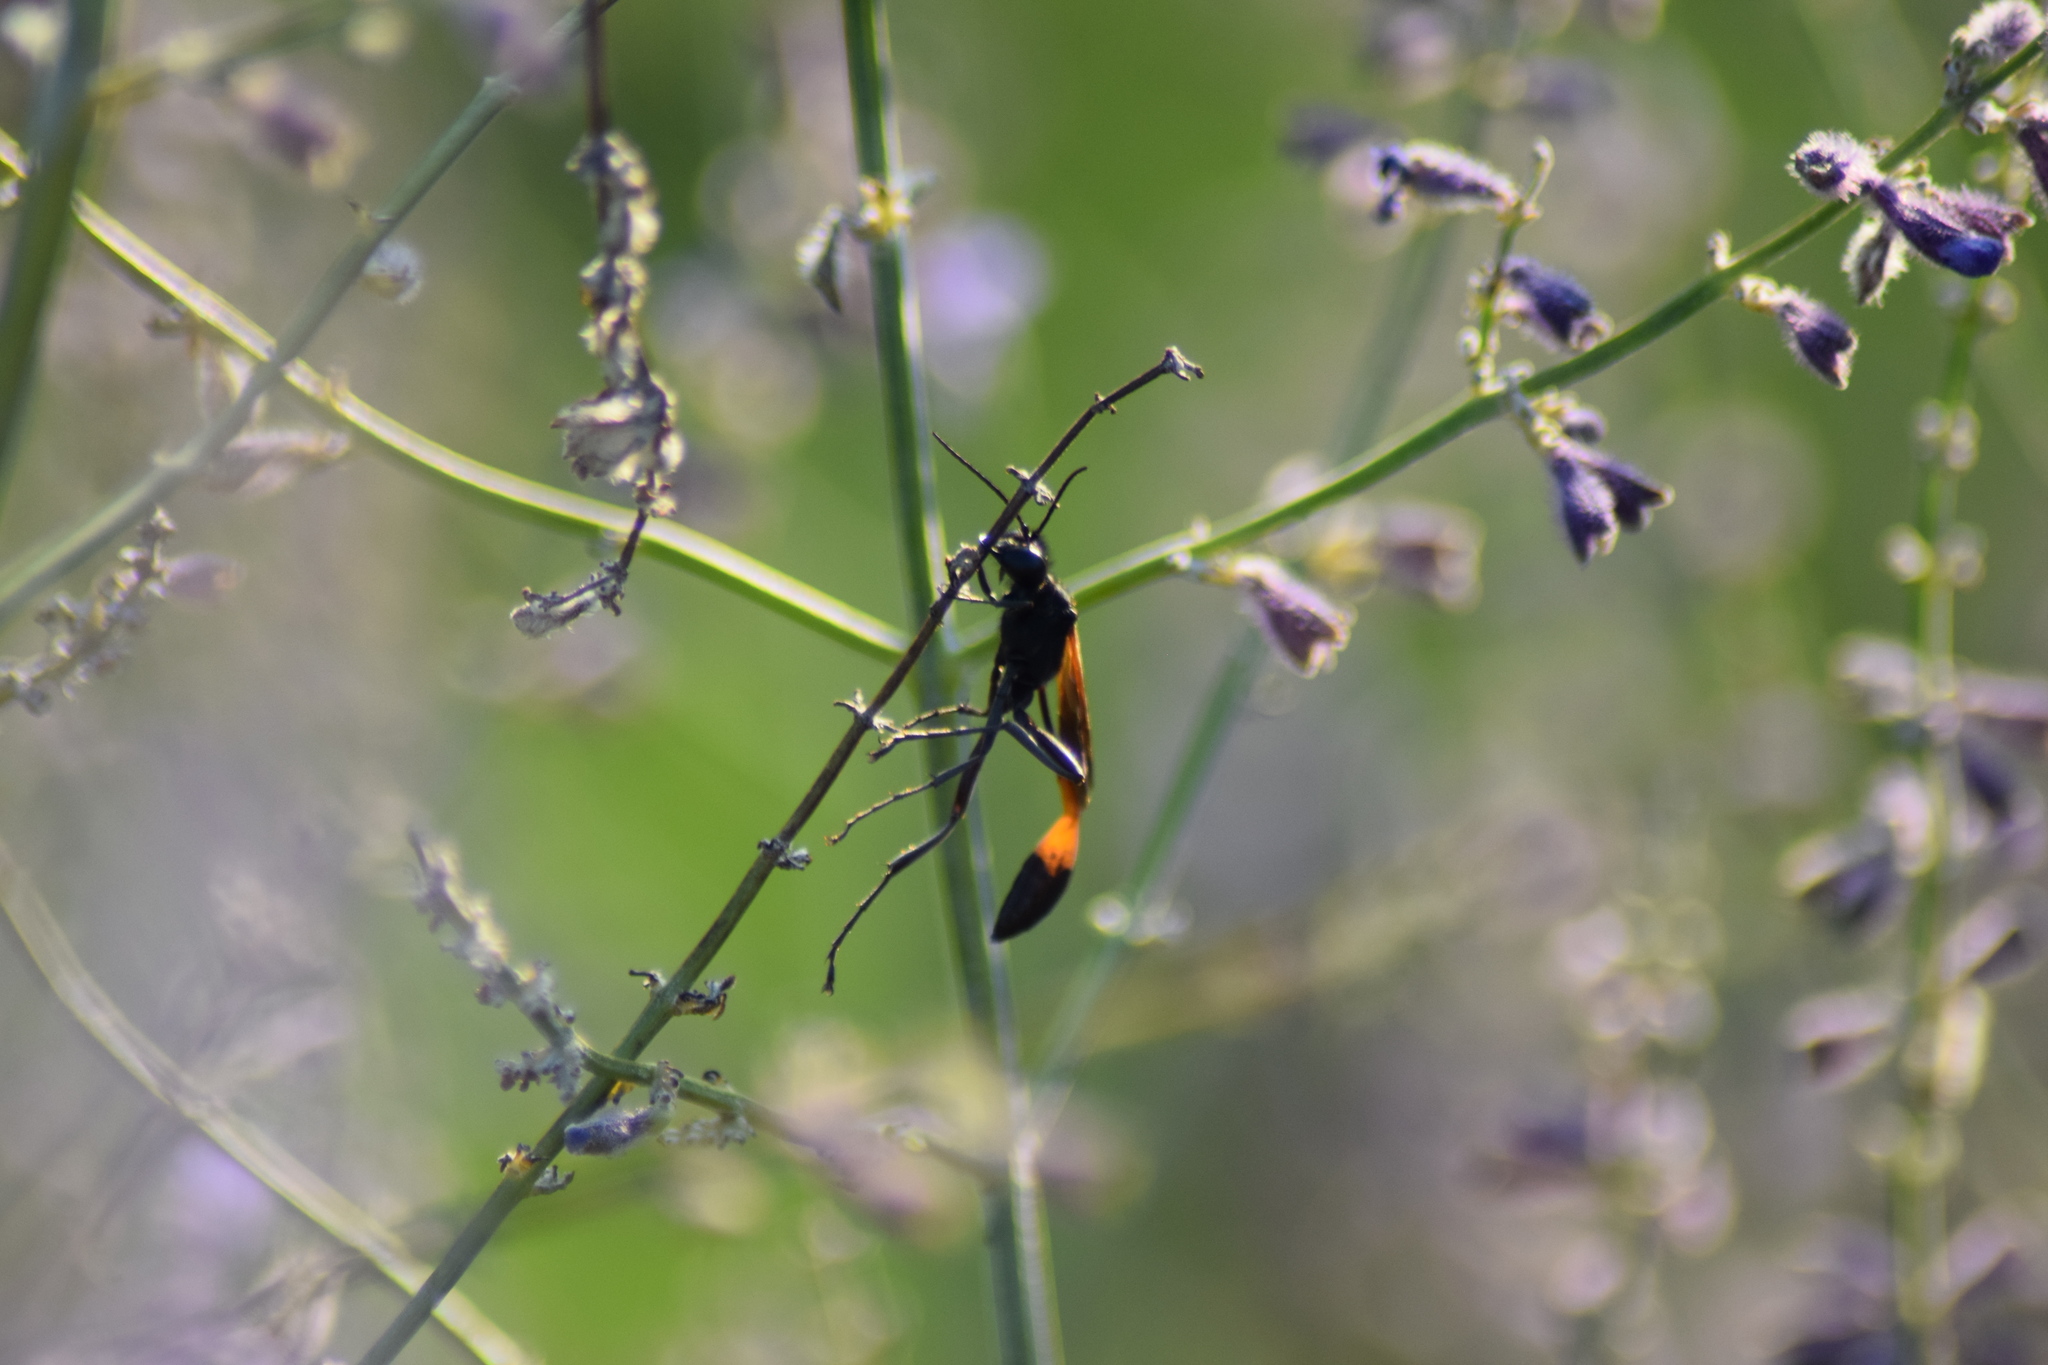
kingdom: Animalia
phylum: Arthropoda
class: Insecta
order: Hymenoptera
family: Sphecidae
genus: Ammophila
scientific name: Ammophila pictipennis
